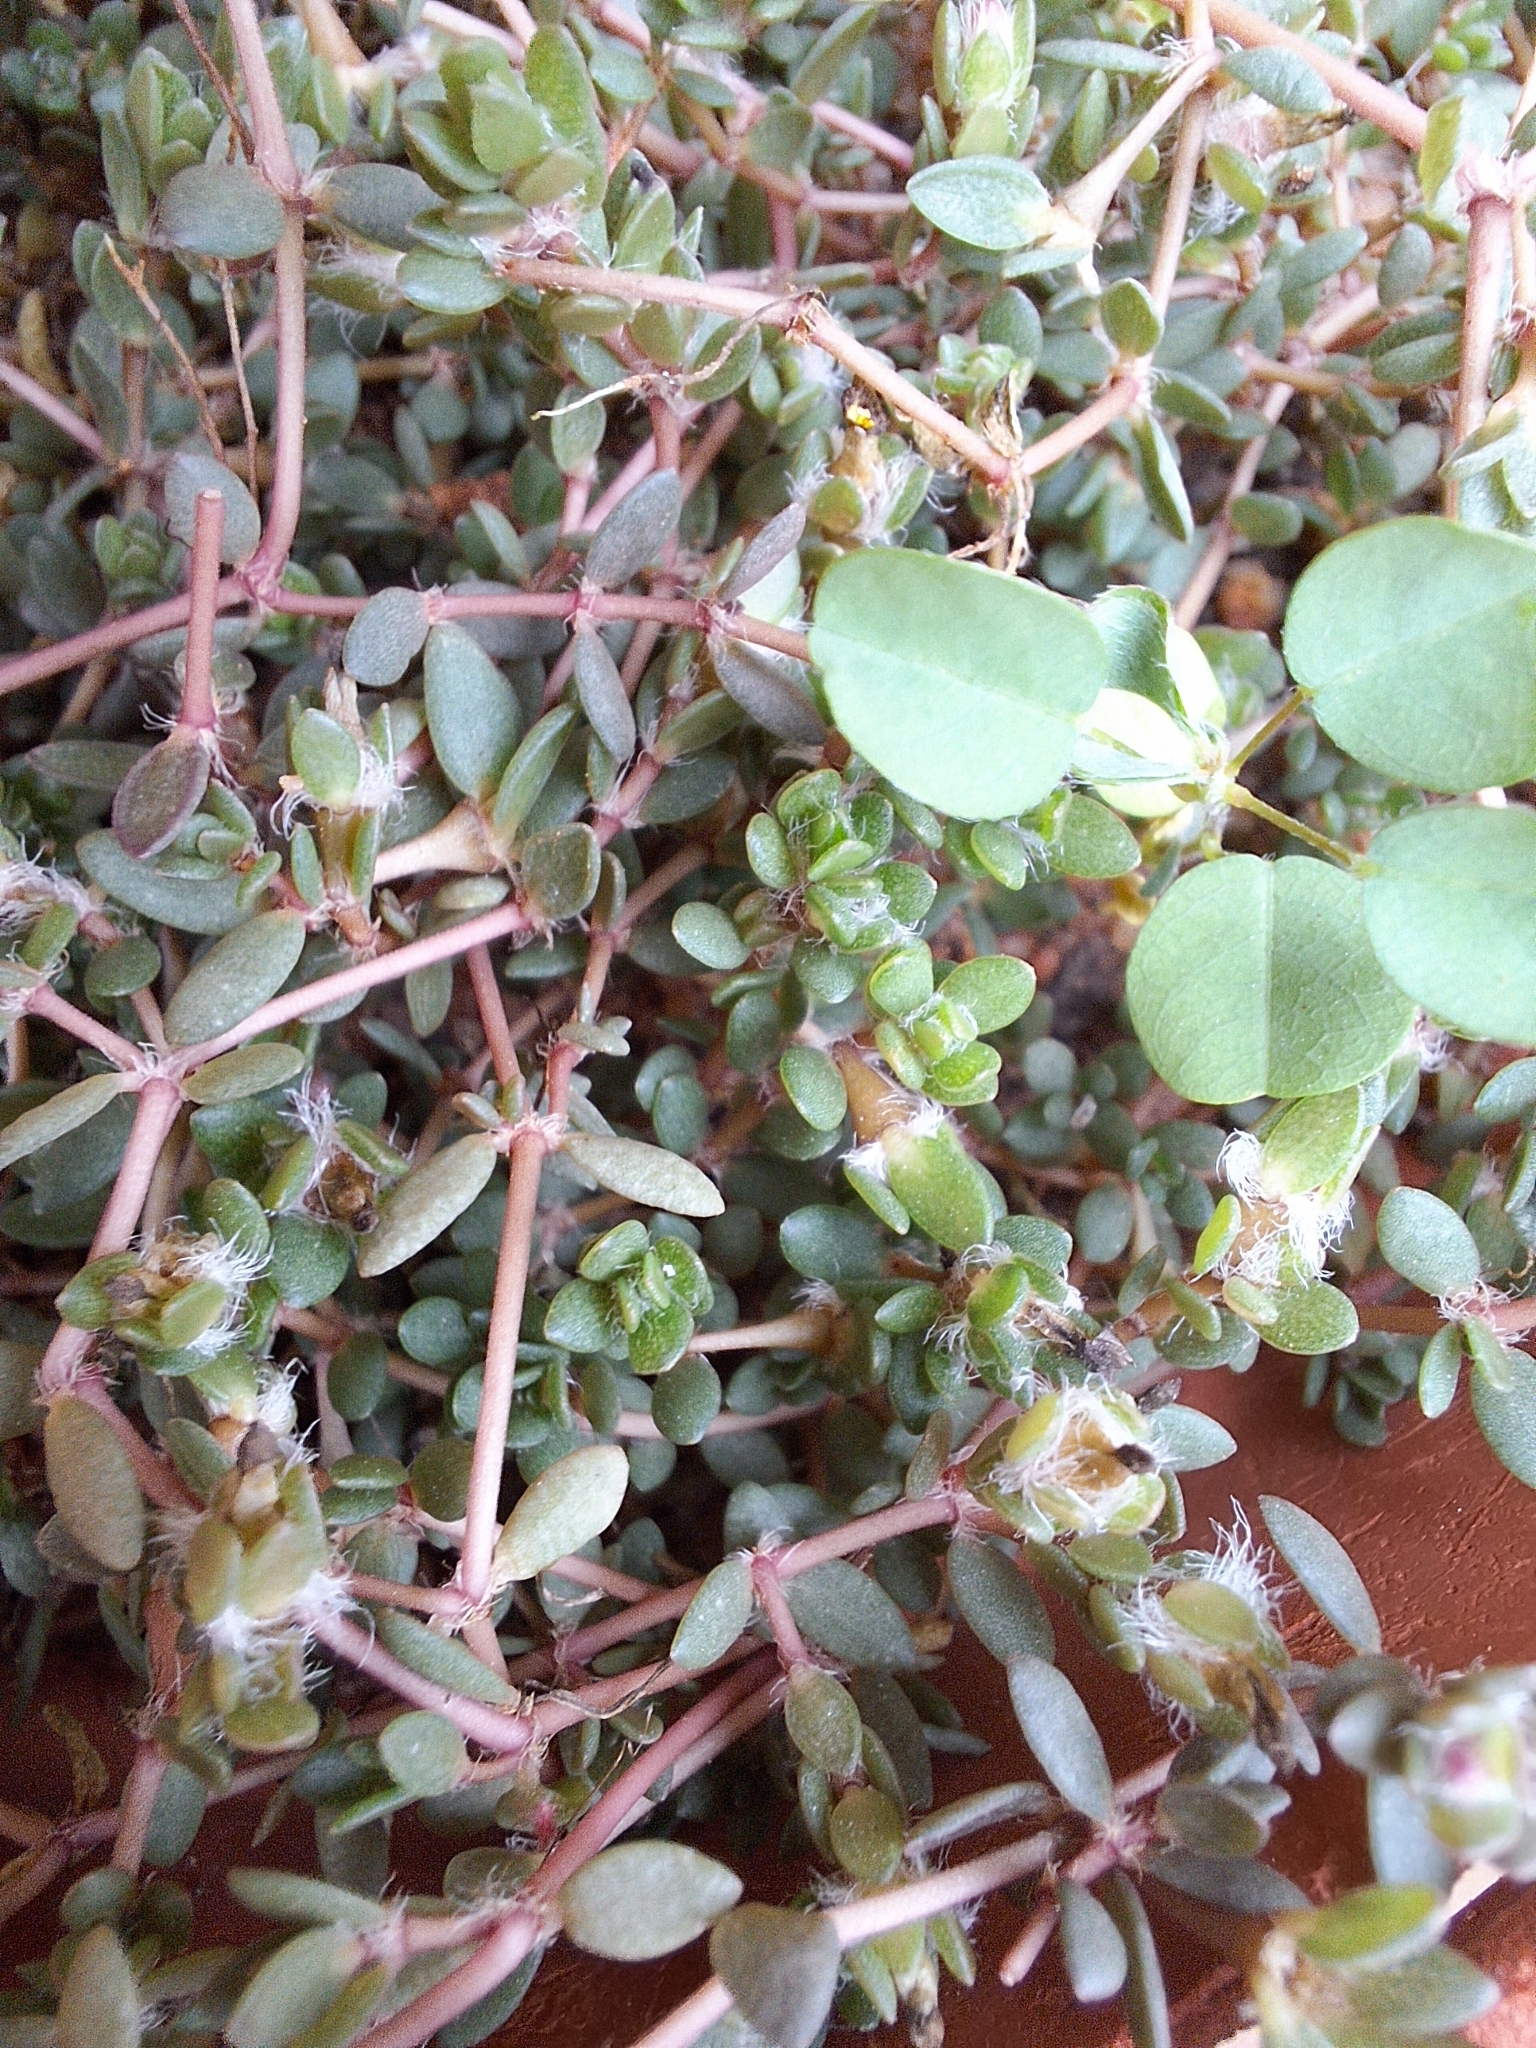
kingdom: Plantae
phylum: Tracheophyta
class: Magnoliopsida
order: Caryophyllales
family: Portulacaceae
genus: Portulaca
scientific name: Portulaca quadrifida
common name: Chickenweed
